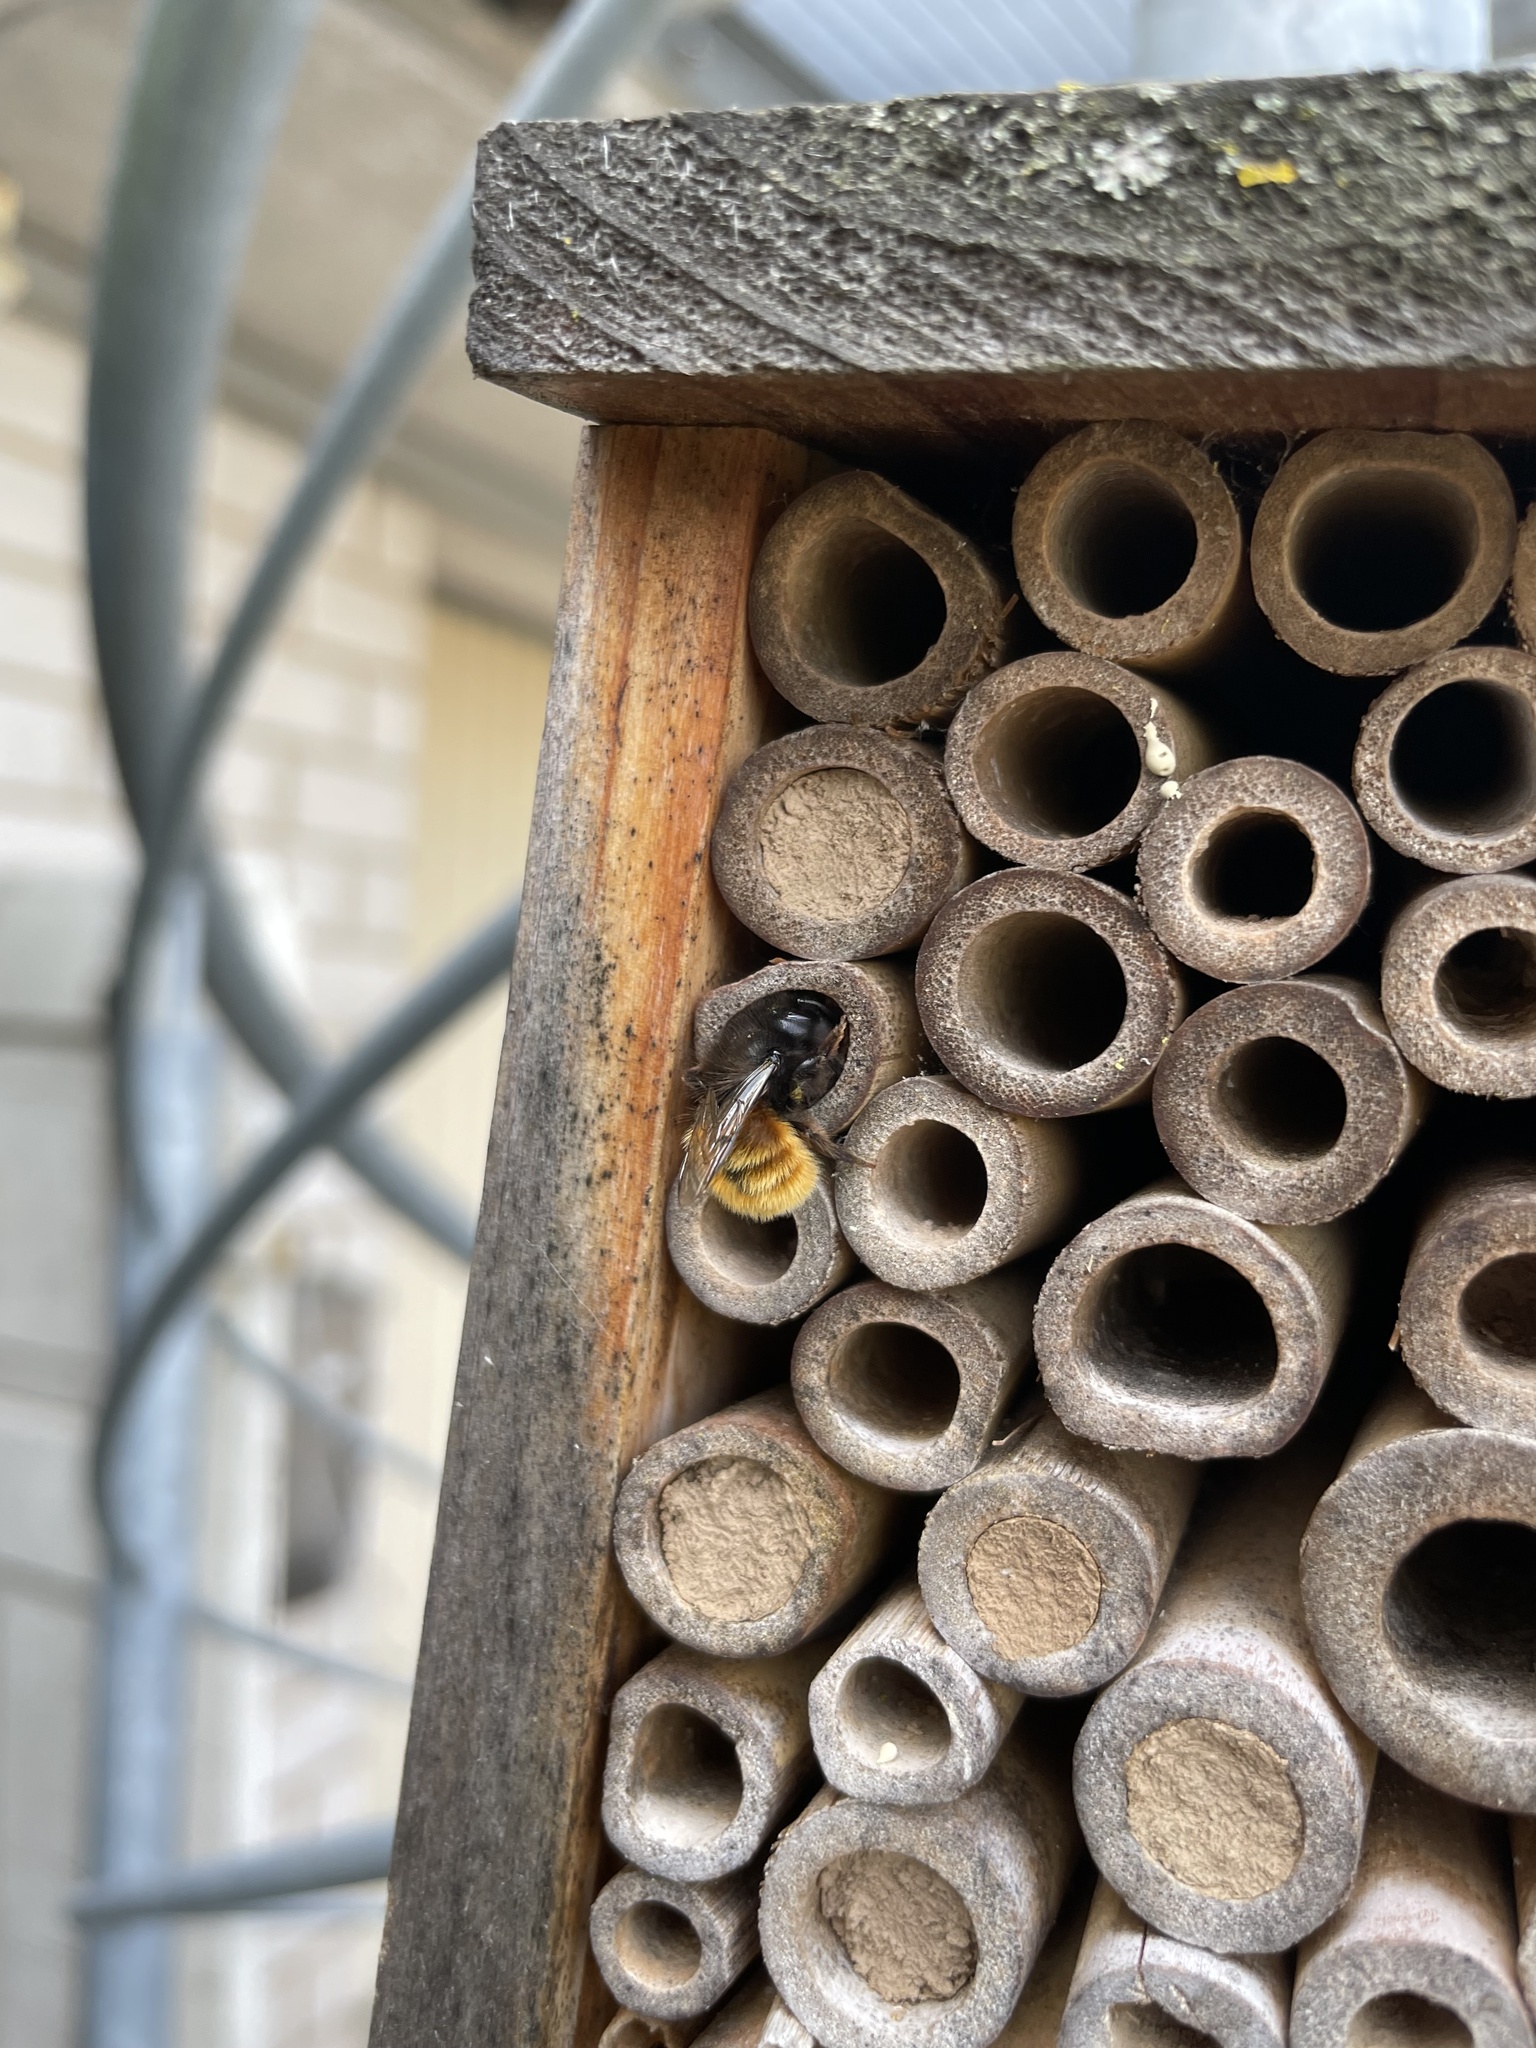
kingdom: Animalia
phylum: Arthropoda
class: Insecta
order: Hymenoptera
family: Megachilidae
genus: Osmia
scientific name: Osmia cornuta
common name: Mason bee
